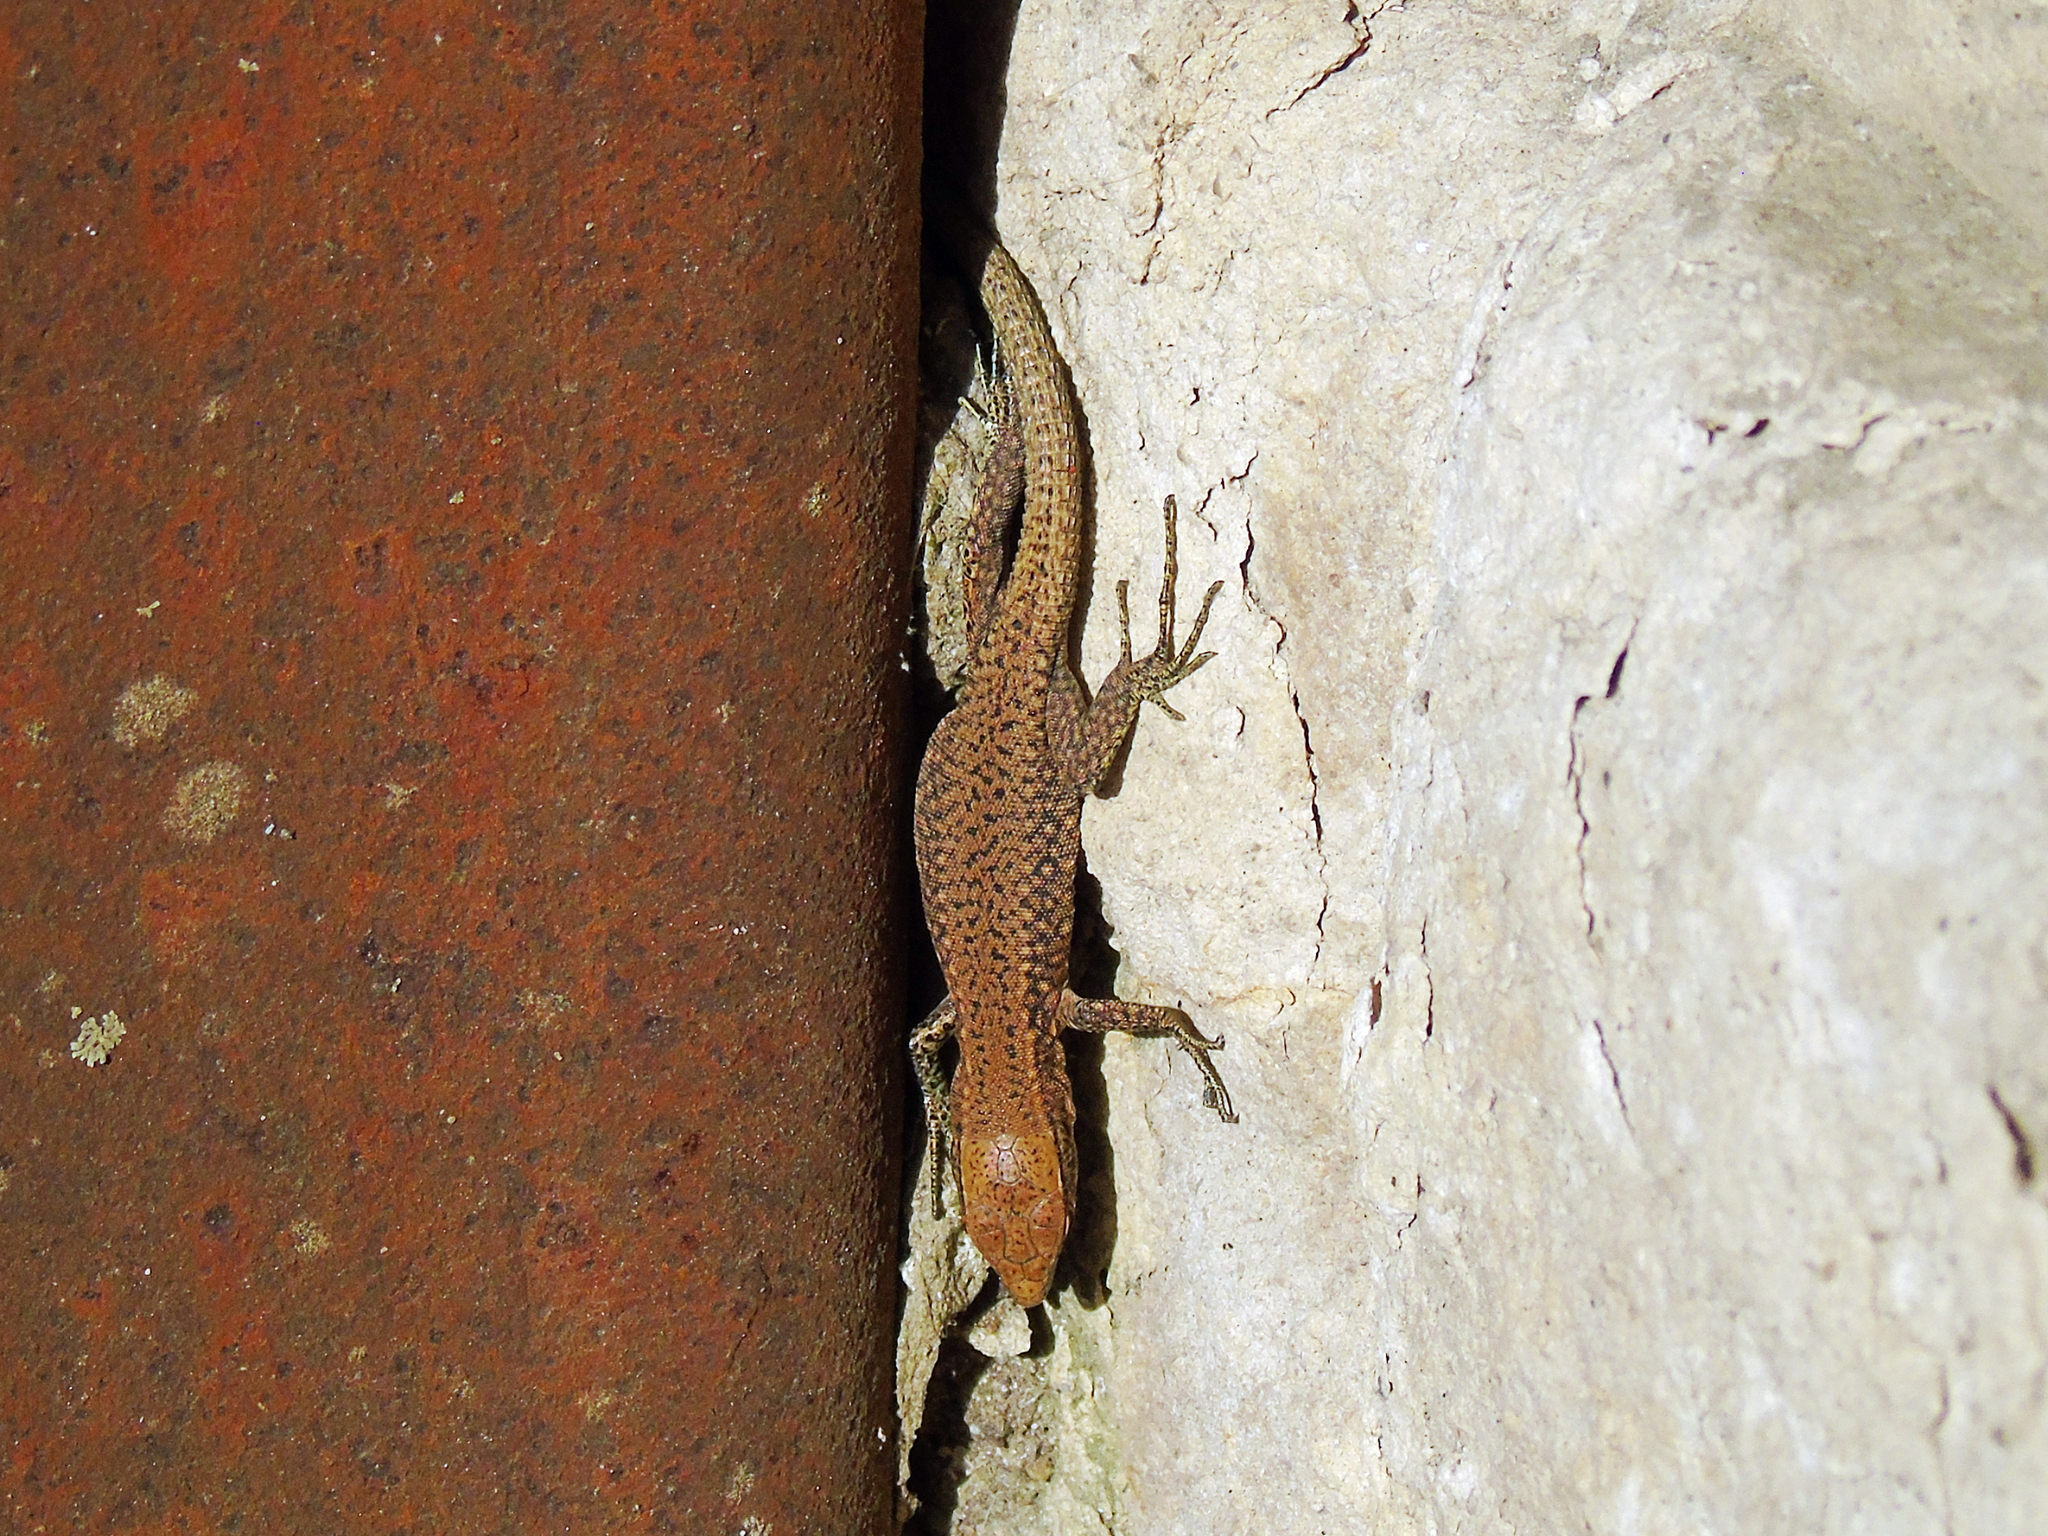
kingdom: Animalia
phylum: Chordata
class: Squamata
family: Lacertidae
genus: Darevskia
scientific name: Darevskia rudis
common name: Spiny-tailed lizard
